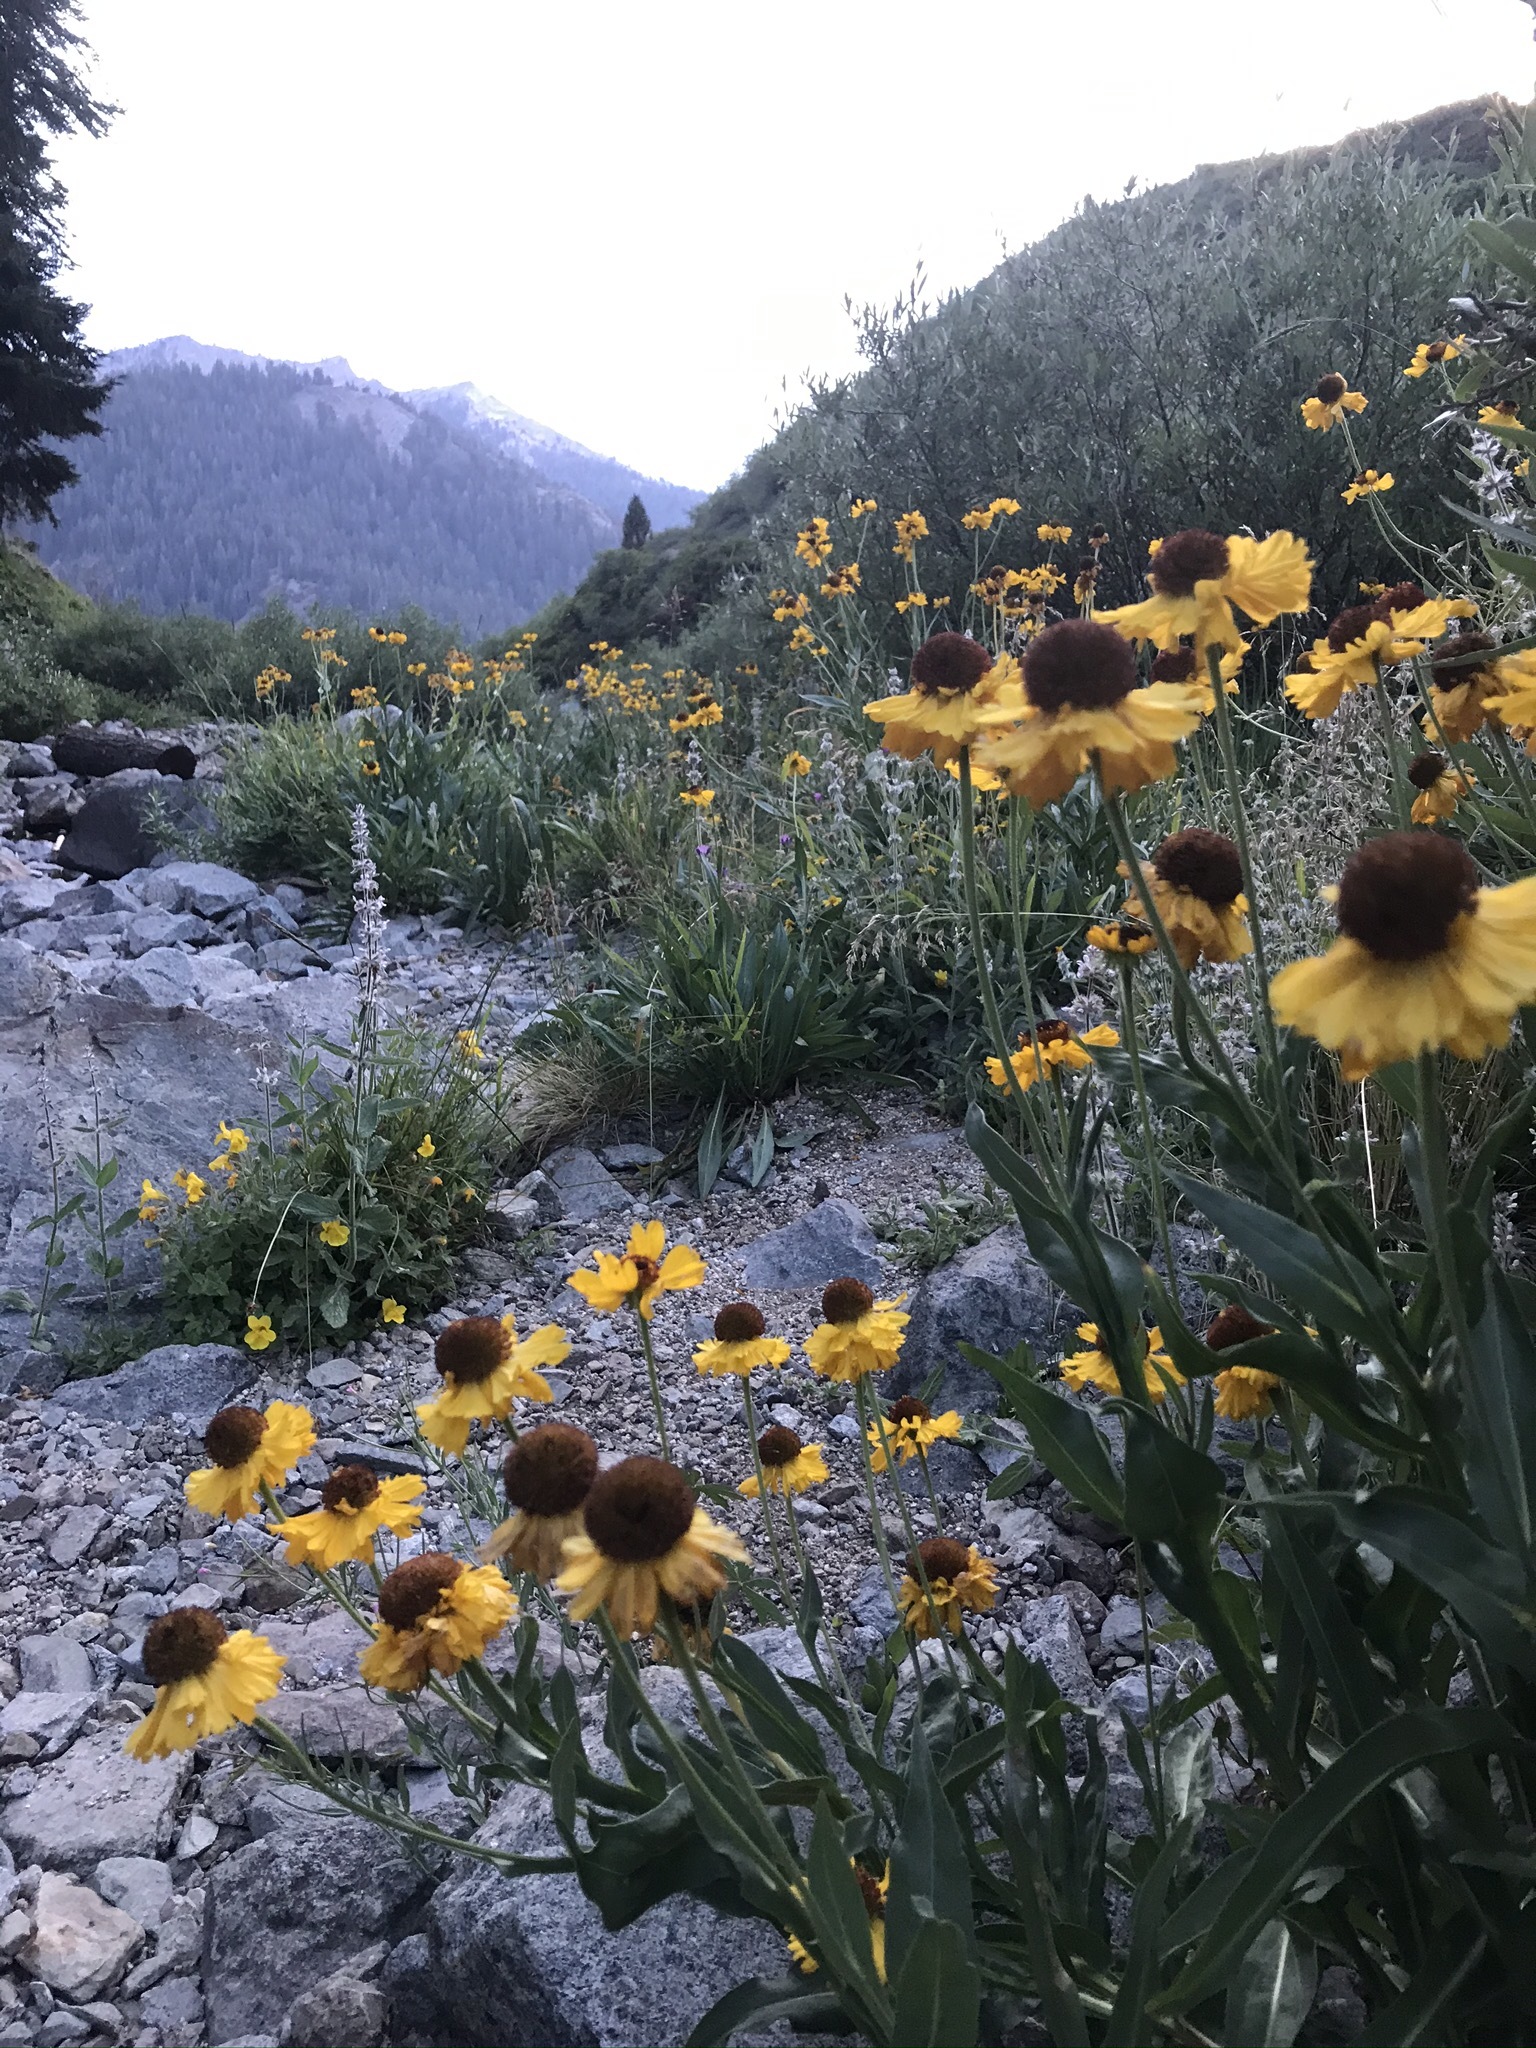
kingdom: Plantae
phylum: Tracheophyta
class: Magnoliopsida
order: Asterales
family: Asteraceae
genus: Helenium
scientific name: Helenium bigelovii
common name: Bigelow's sneezeweed
